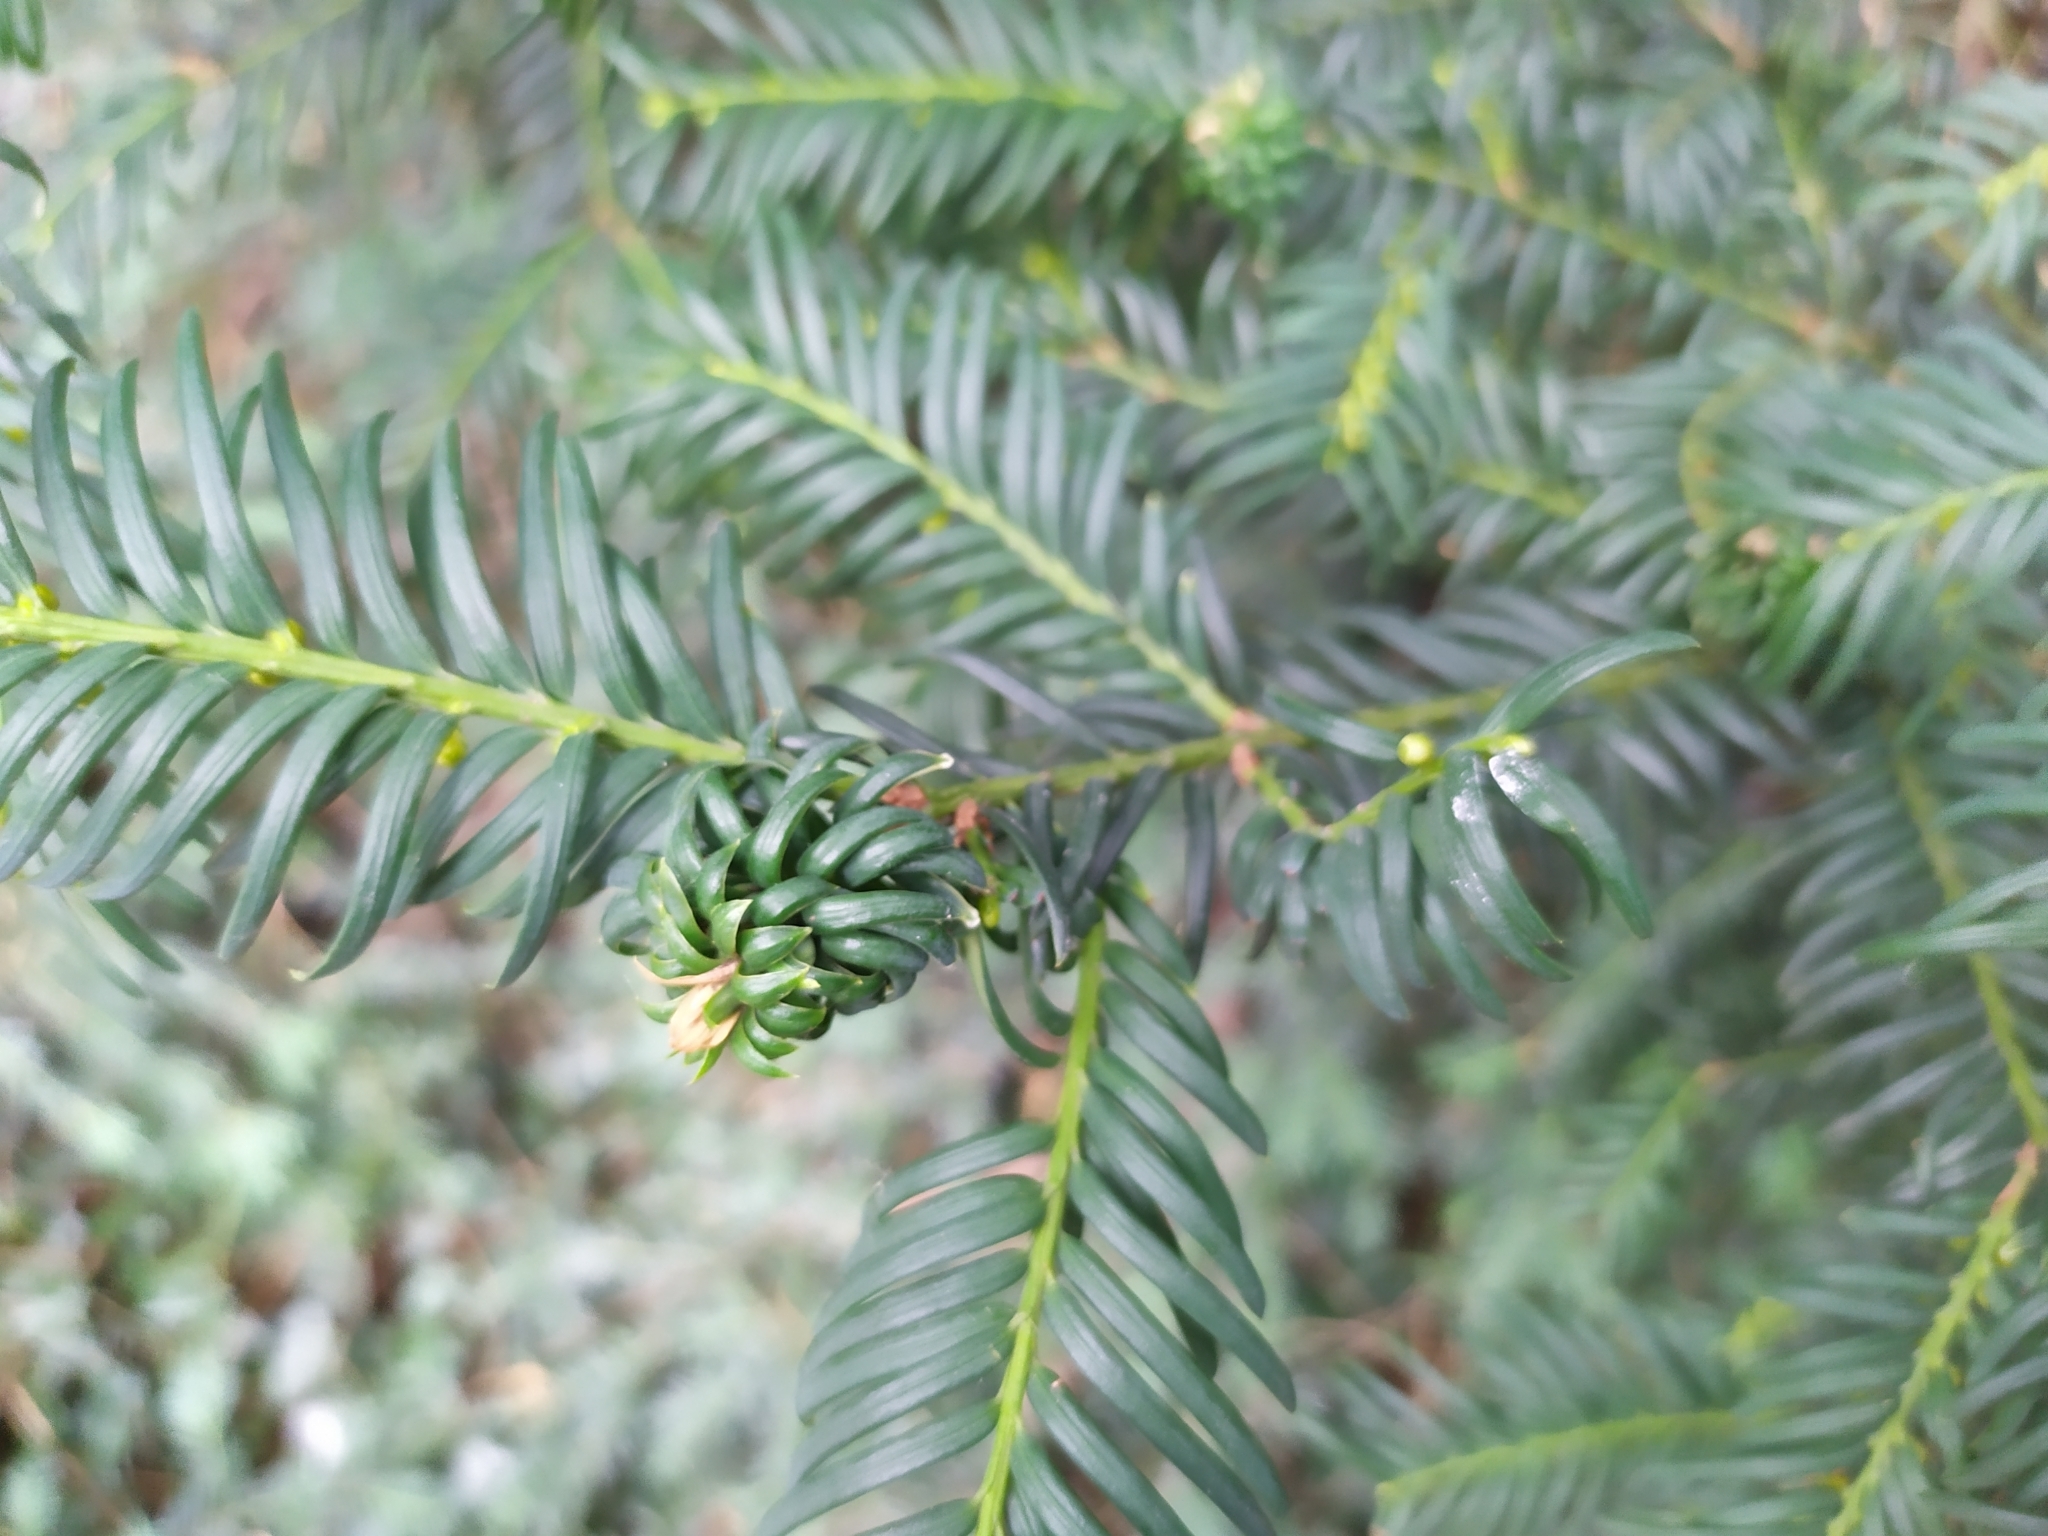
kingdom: Animalia
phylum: Arthropoda
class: Insecta
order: Diptera
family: Cecidomyiidae
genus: Taxomyia
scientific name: Taxomyia taxi
